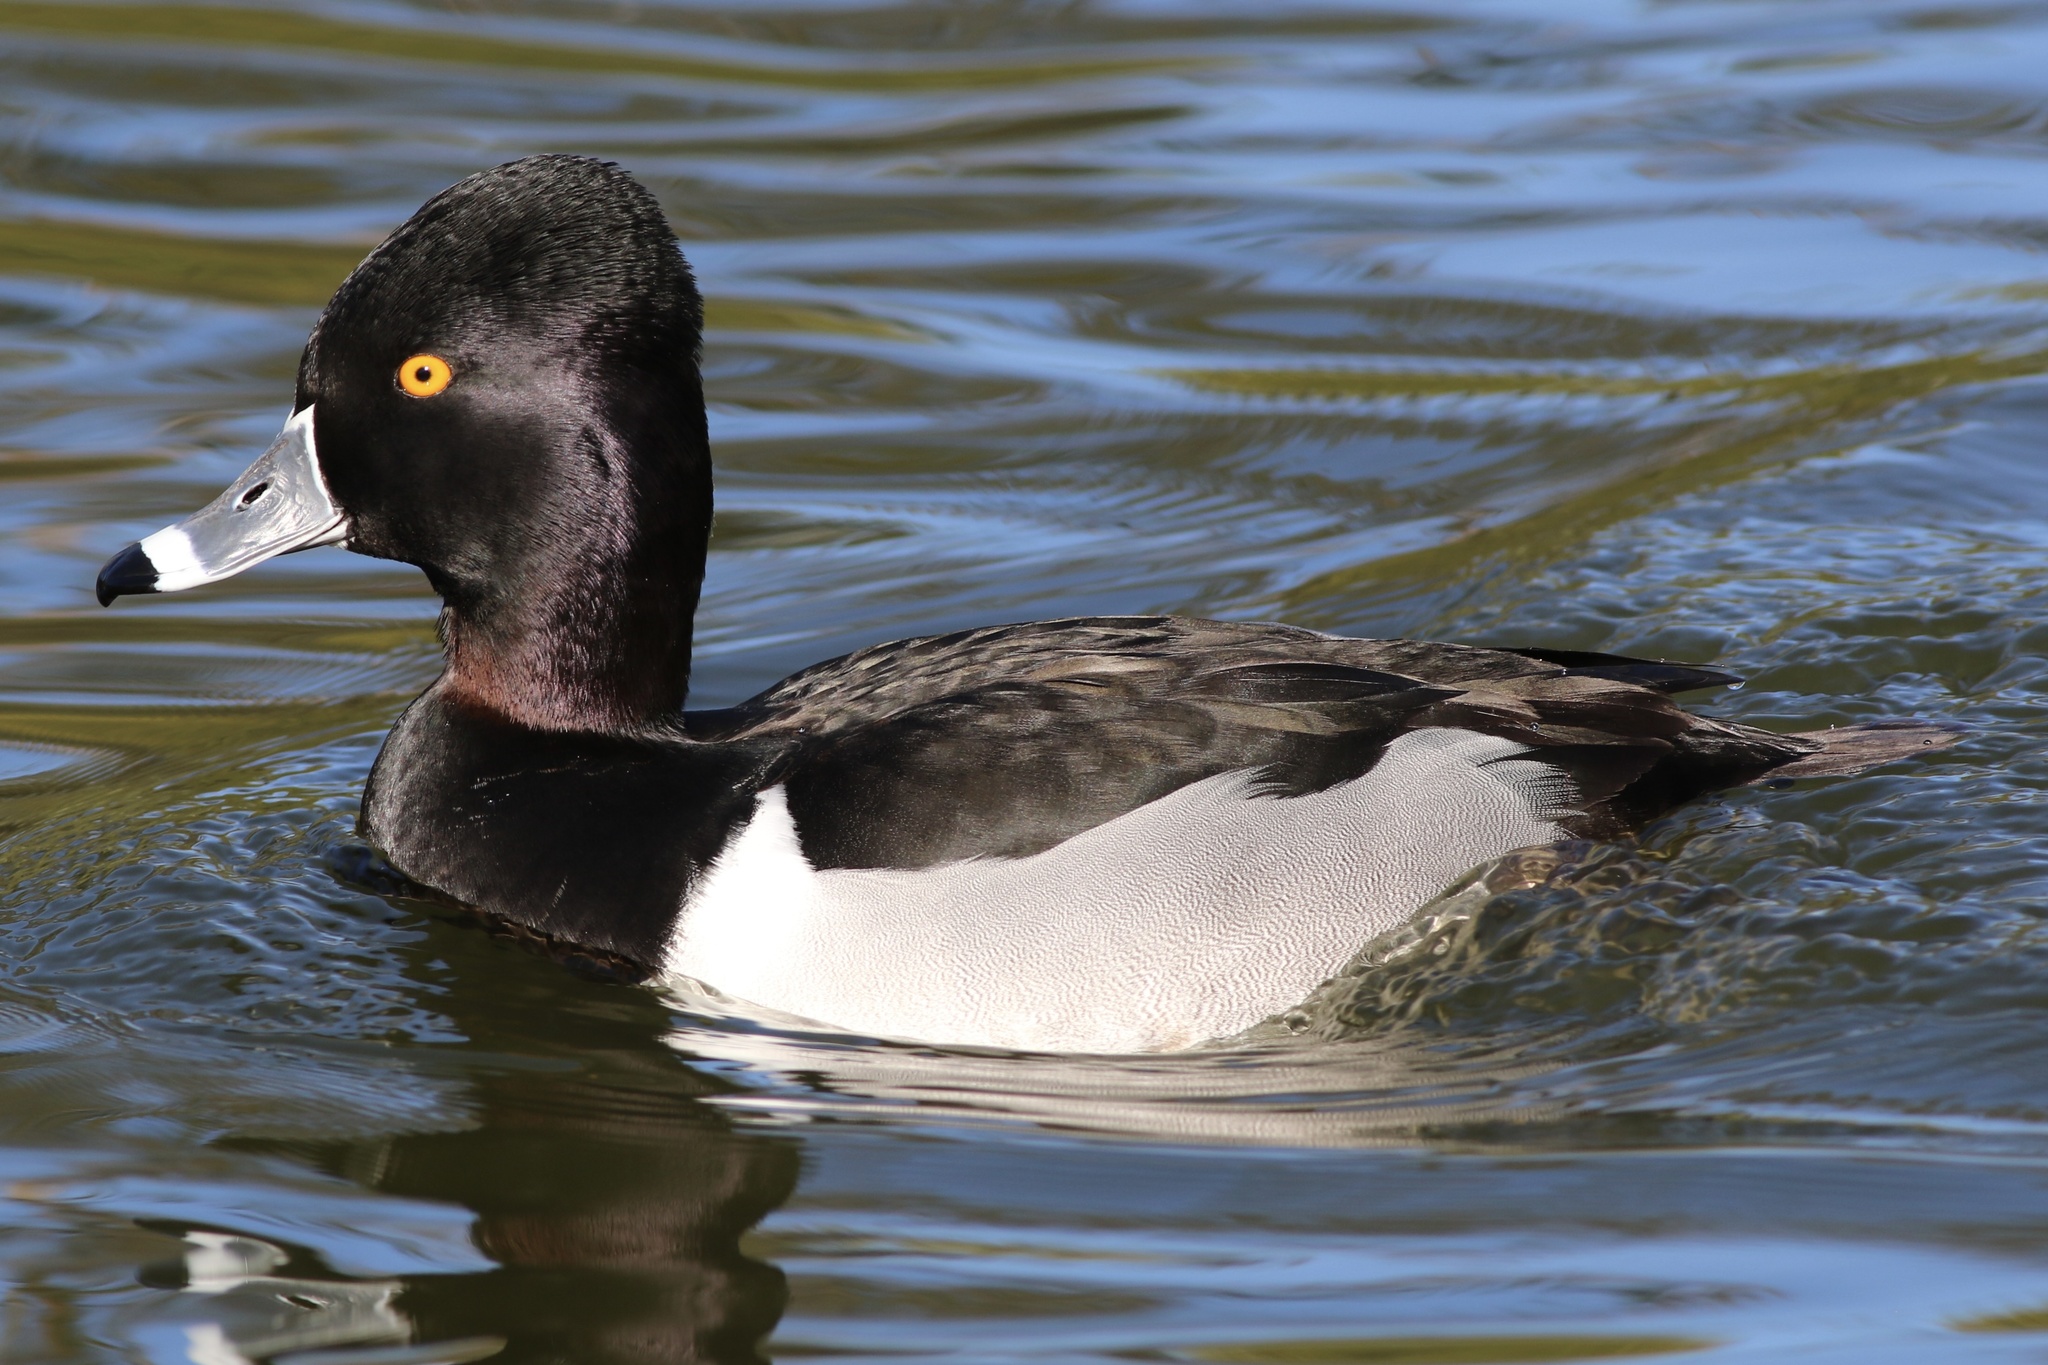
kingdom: Animalia
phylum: Chordata
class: Aves
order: Anseriformes
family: Anatidae
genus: Aythya
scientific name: Aythya collaris
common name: Ring-necked duck
